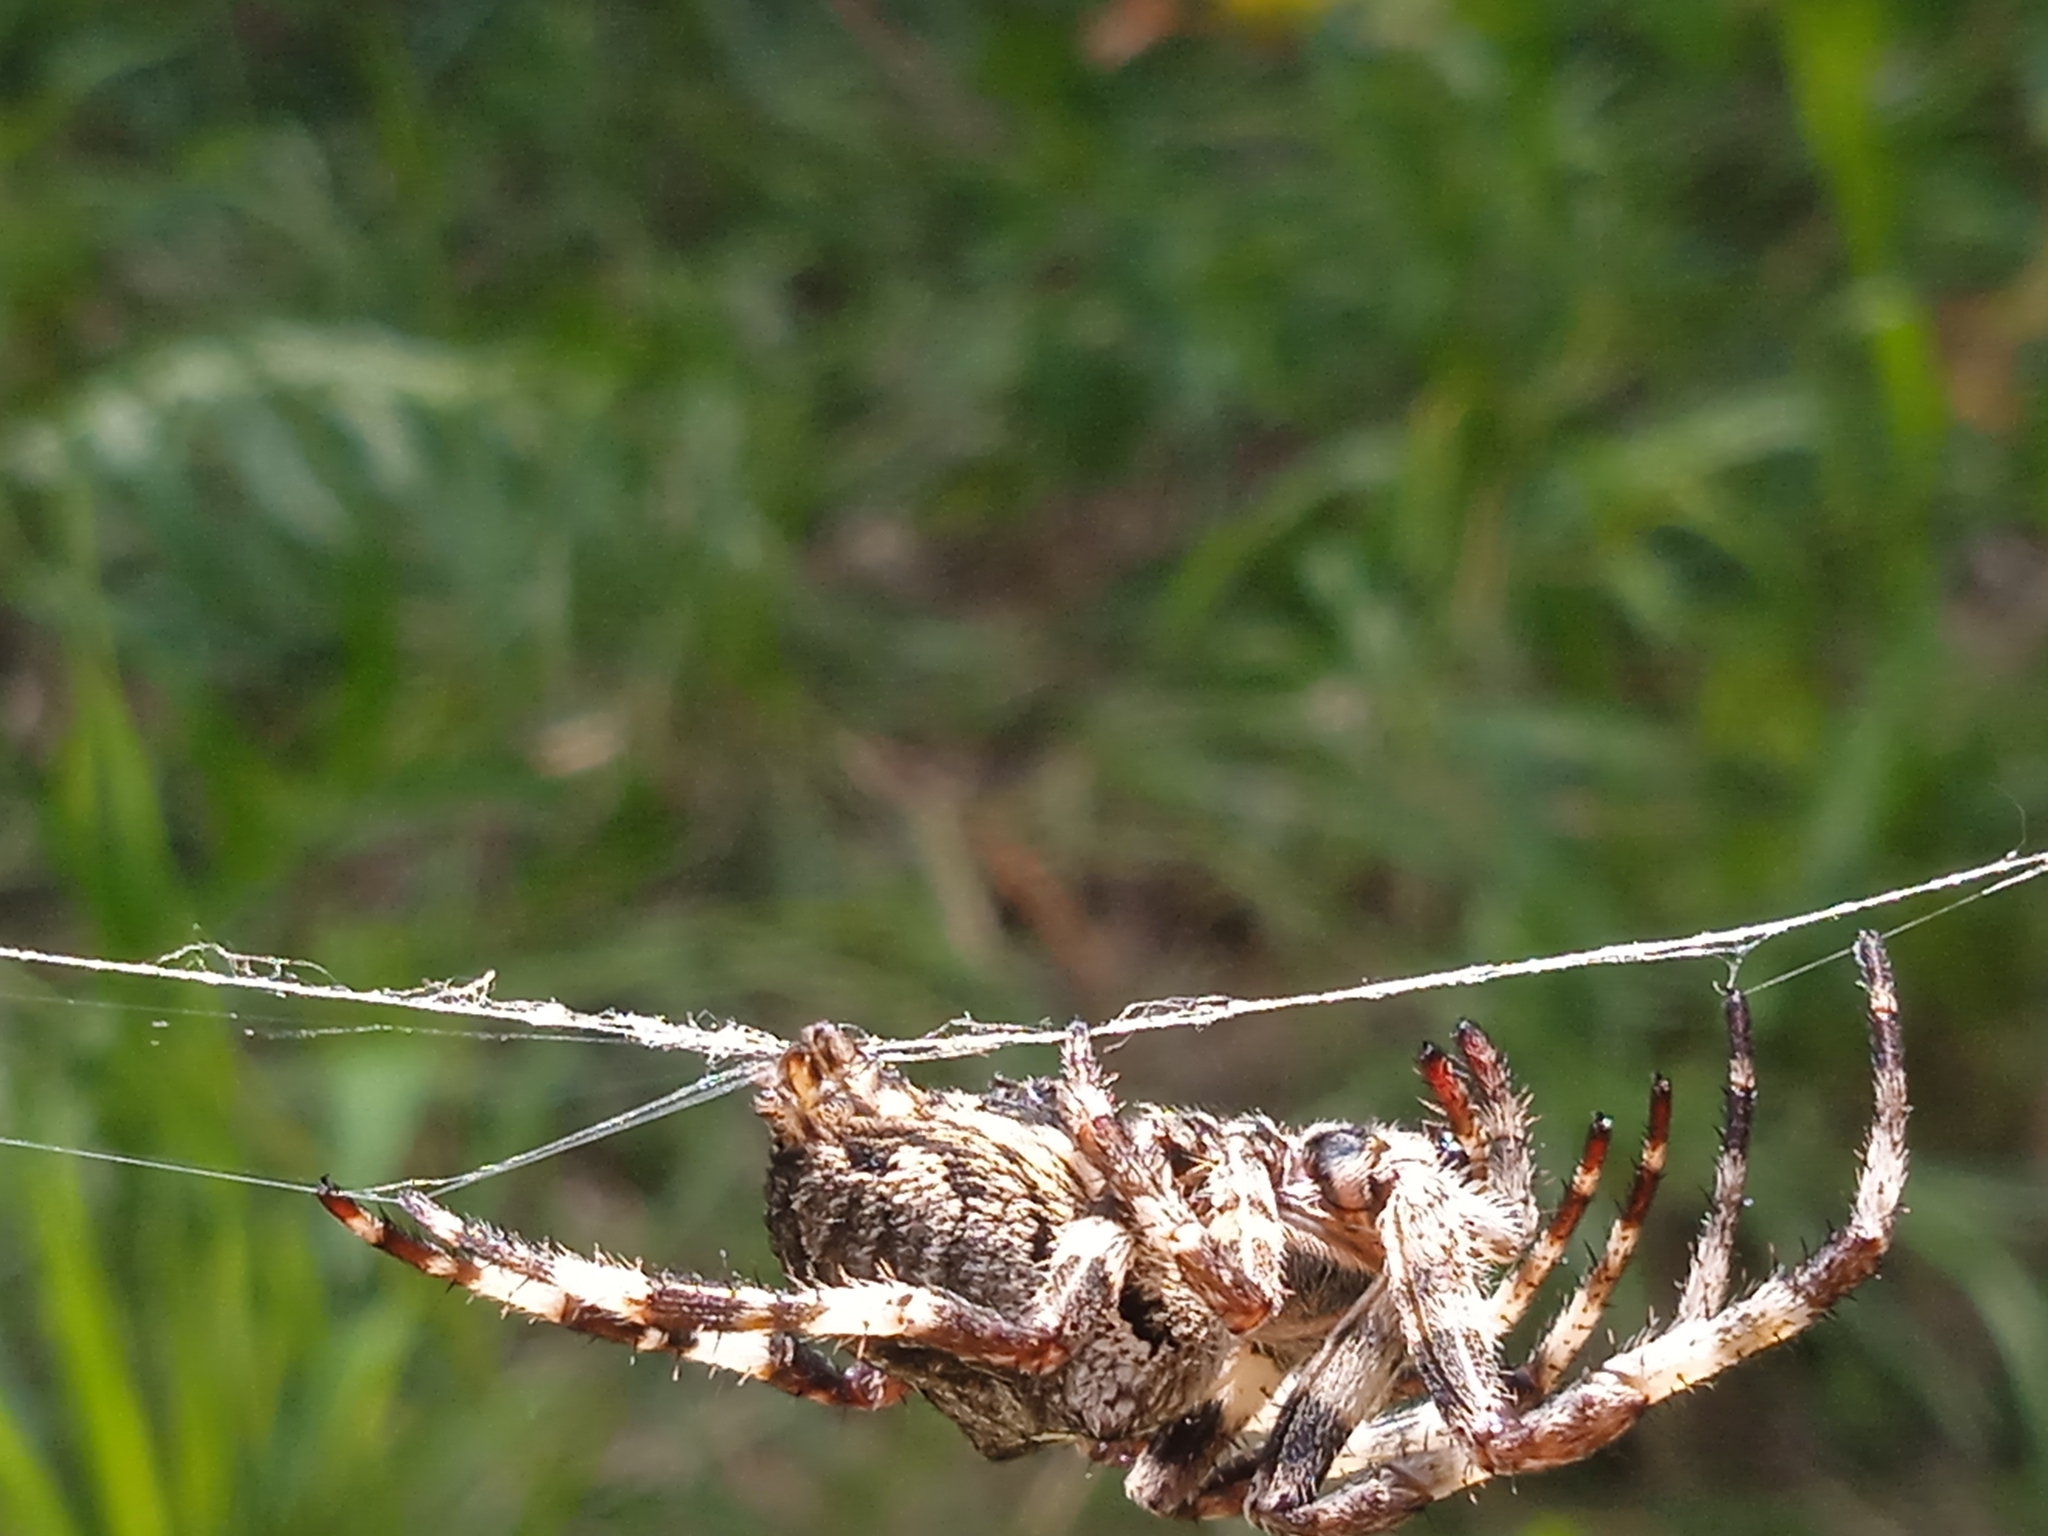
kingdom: Animalia
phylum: Arthropoda
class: Arachnida
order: Araneae
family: Araneidae
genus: Araneus
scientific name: Araneus angulatus
